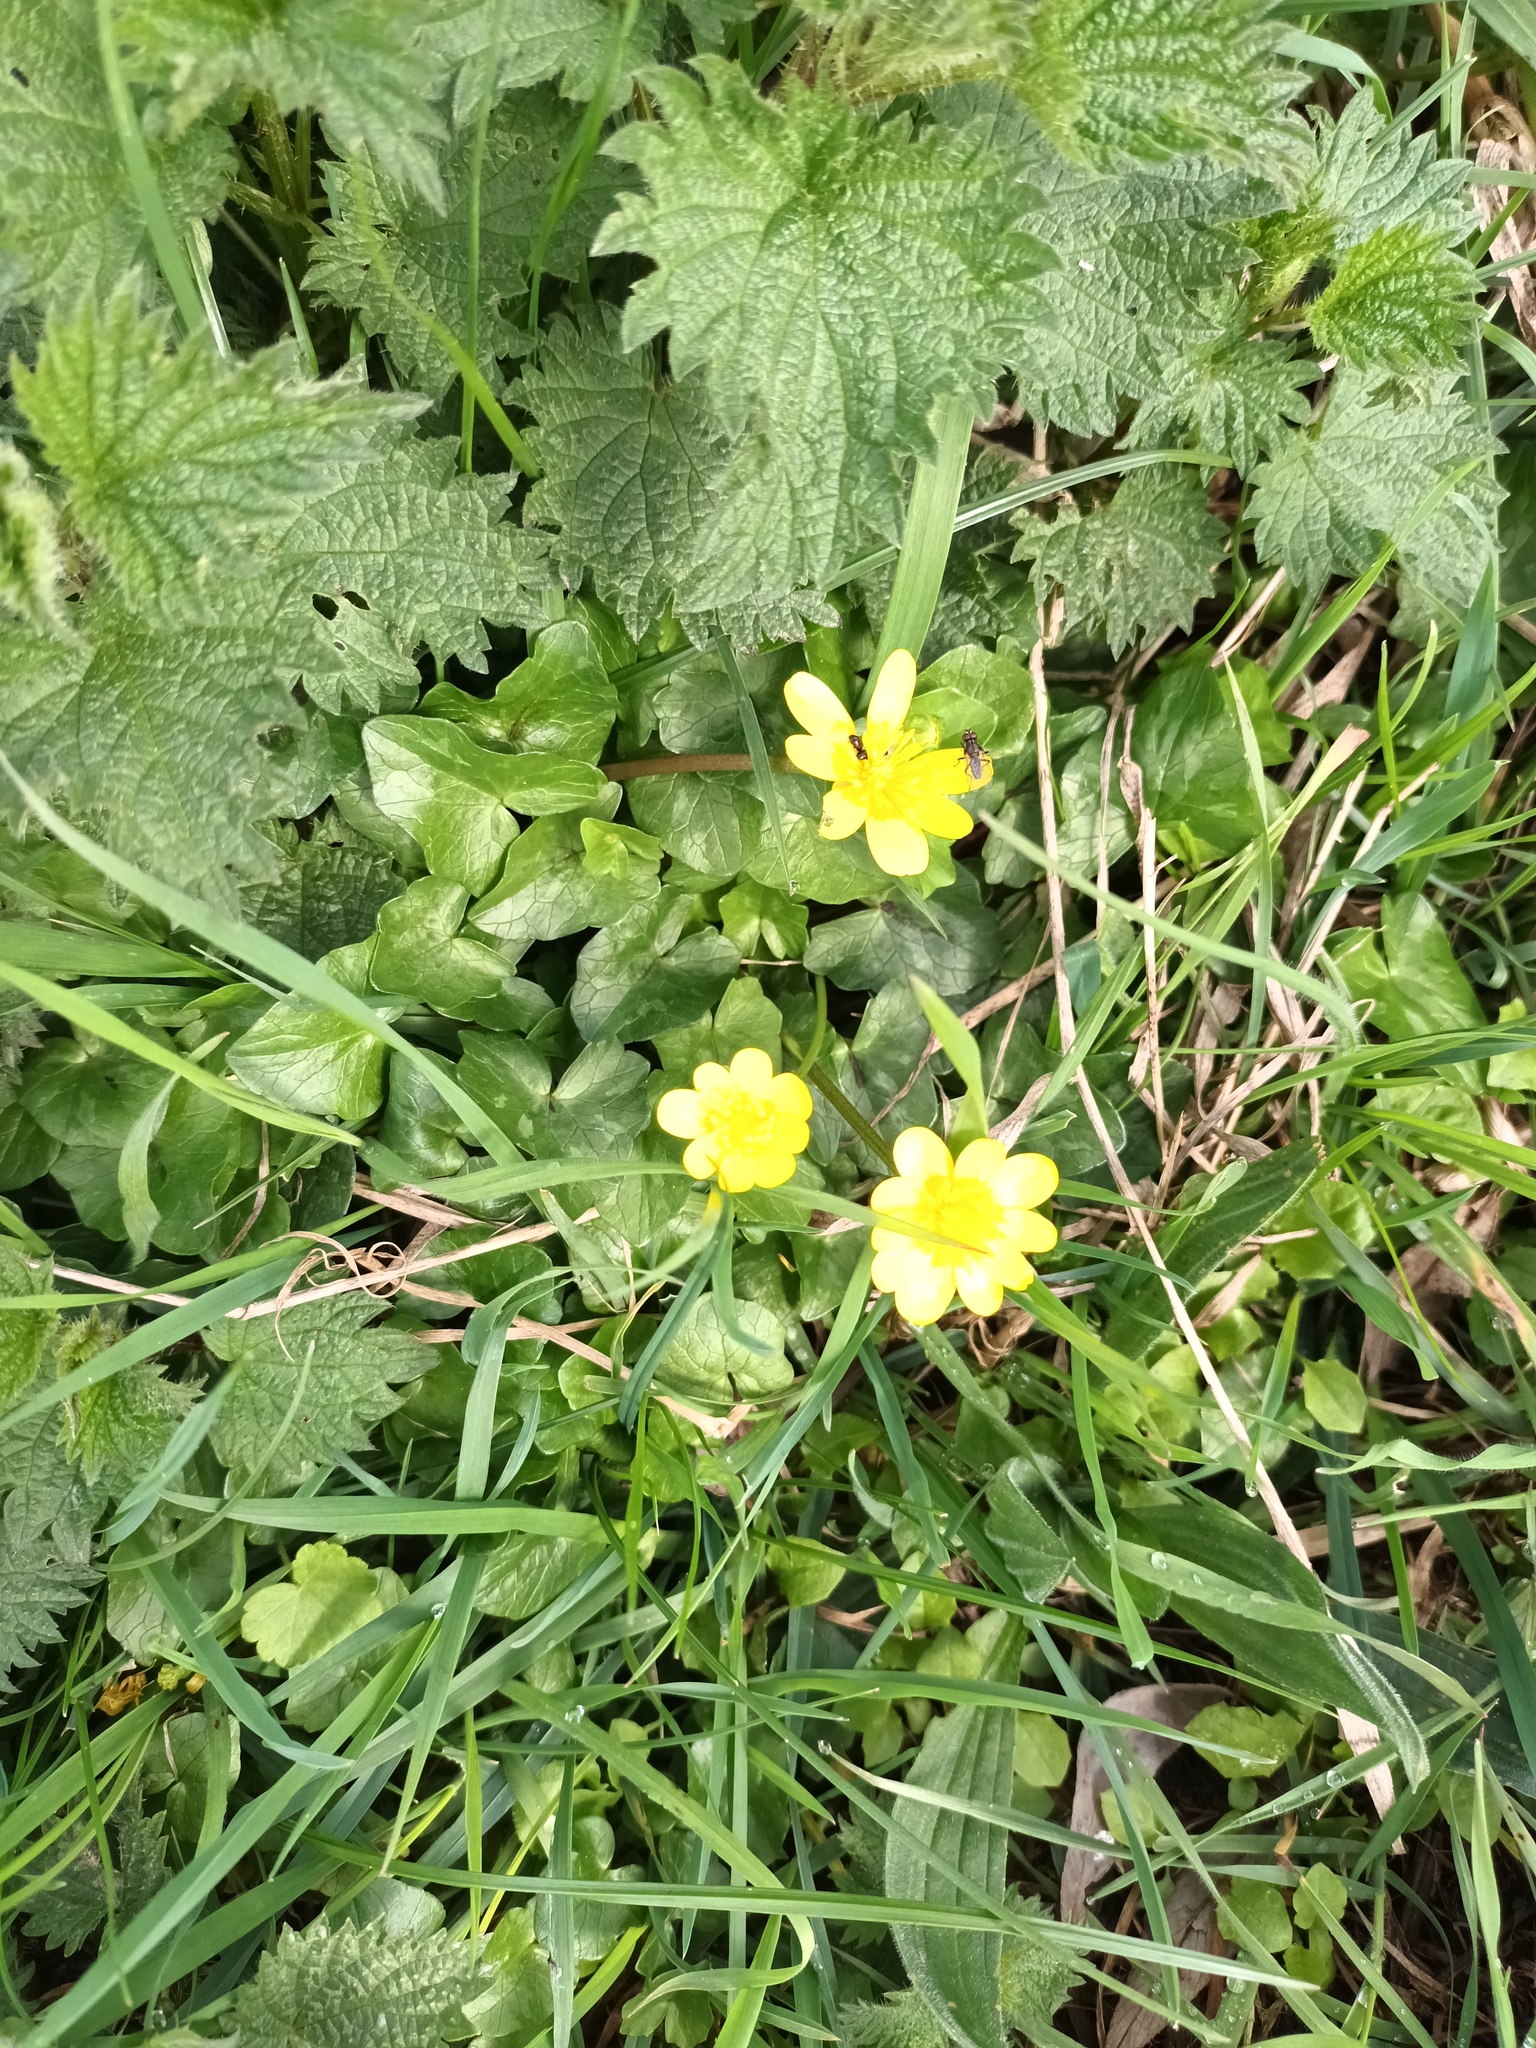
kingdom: Plantae
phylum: Tracheophyta
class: Magnoliopsida
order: Ranunculales
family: Ranunculaceae
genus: Ficaria
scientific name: Ficaria verna
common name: Lesser celandine
